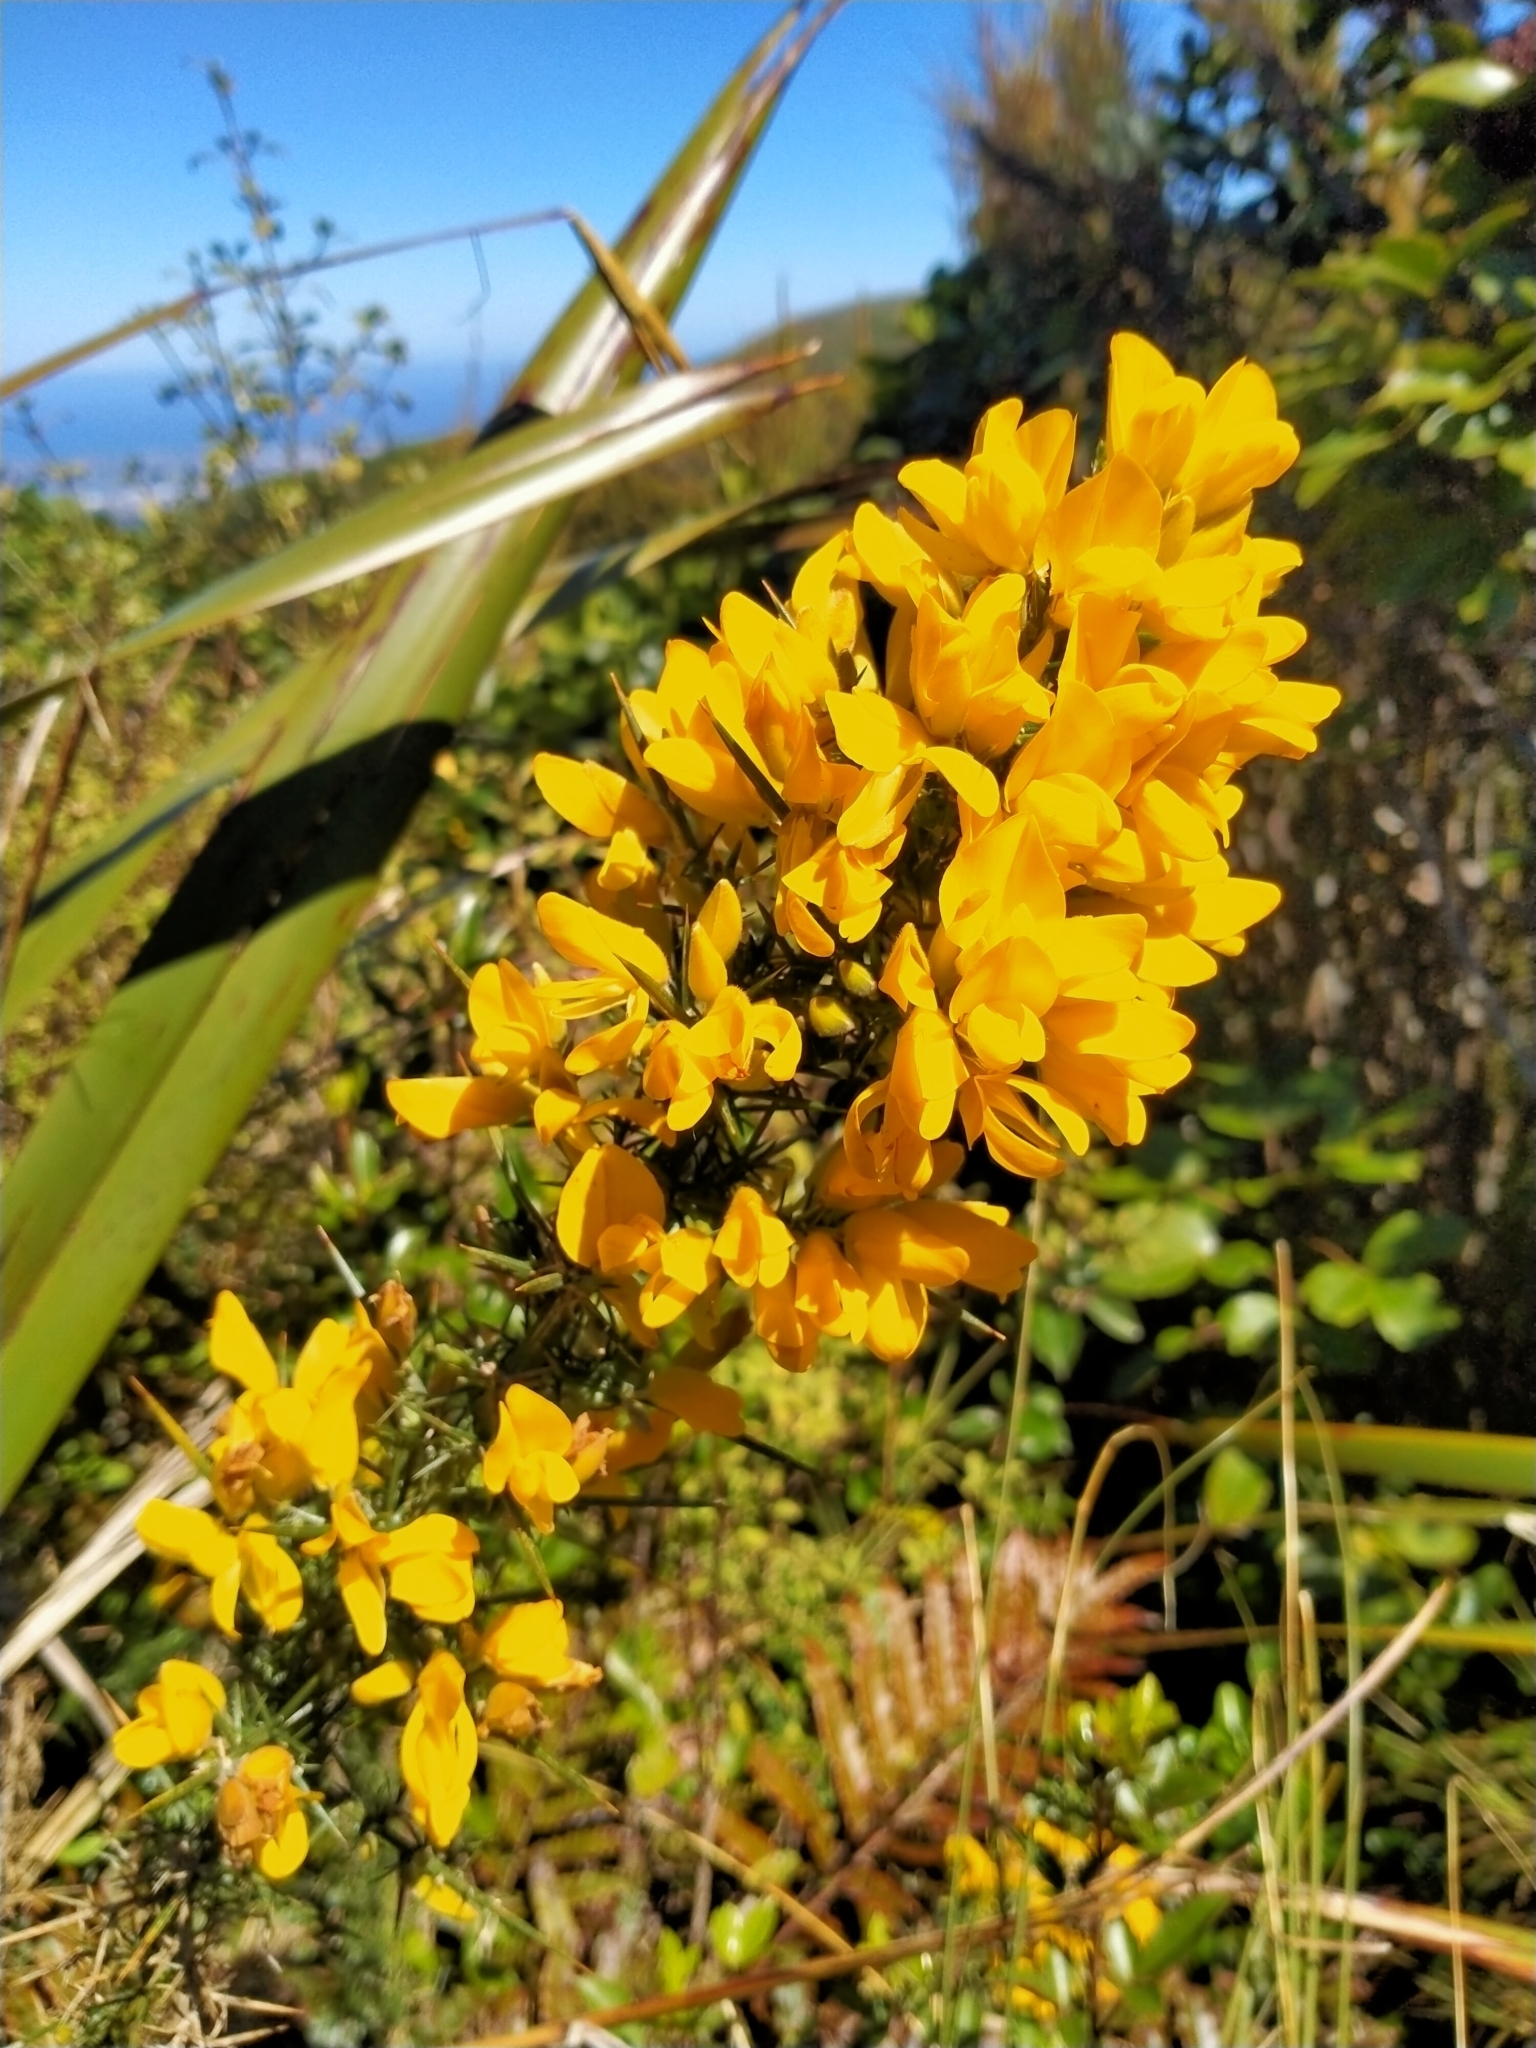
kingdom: Plantae
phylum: Tracheophyta
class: Magnoliopsida
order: Fabales
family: Fabaceae
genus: Ulex
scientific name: Ulex europaeus
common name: Common gorse
